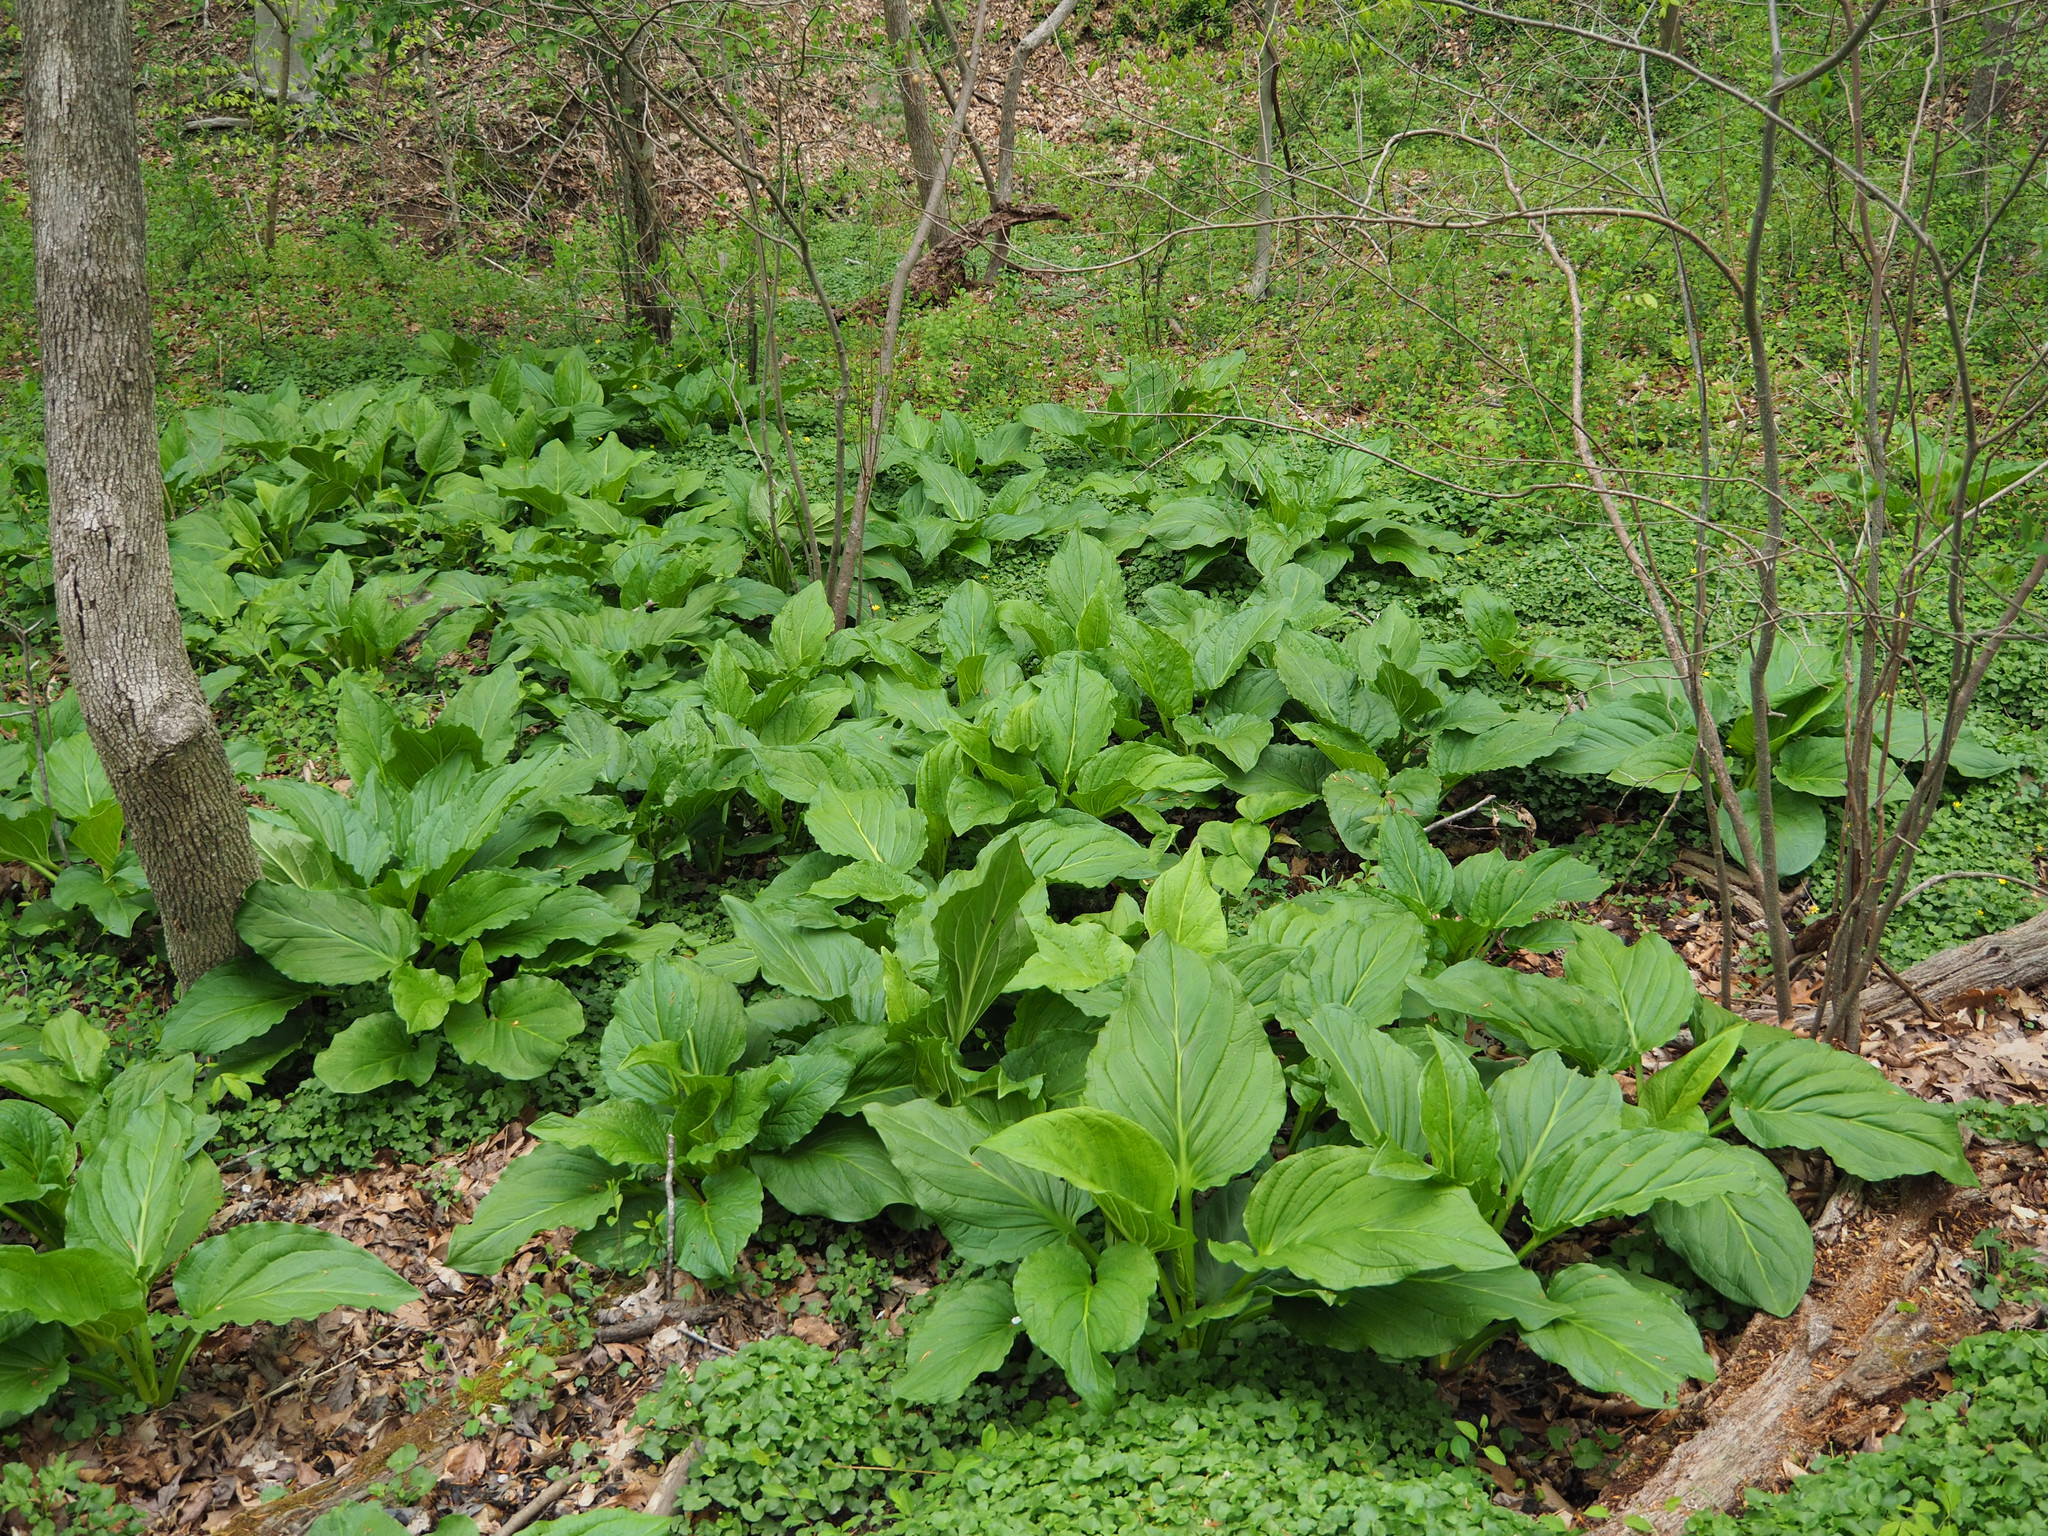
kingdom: Plantae
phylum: Tracheophyta
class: Liliopsida
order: Alismatales
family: Araceae
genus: Symplocarpus
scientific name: Symplocarpus foetidus
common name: Eastern skunk cabbage
